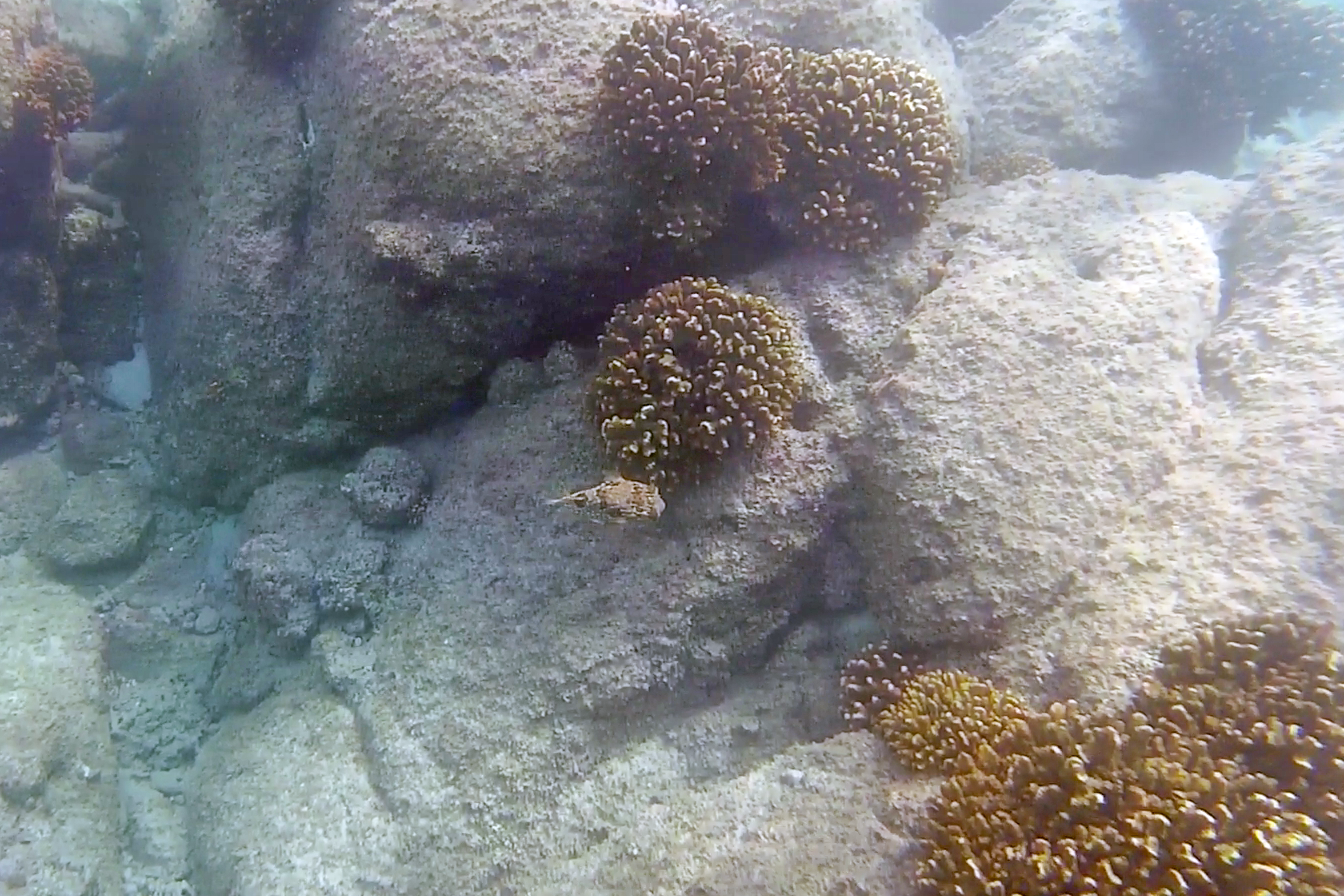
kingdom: Animalia
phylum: Chordata
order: Tetraodontiformes
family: Diodontidae
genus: Diodon
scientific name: Diodon holocanthus
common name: Balloonfish
